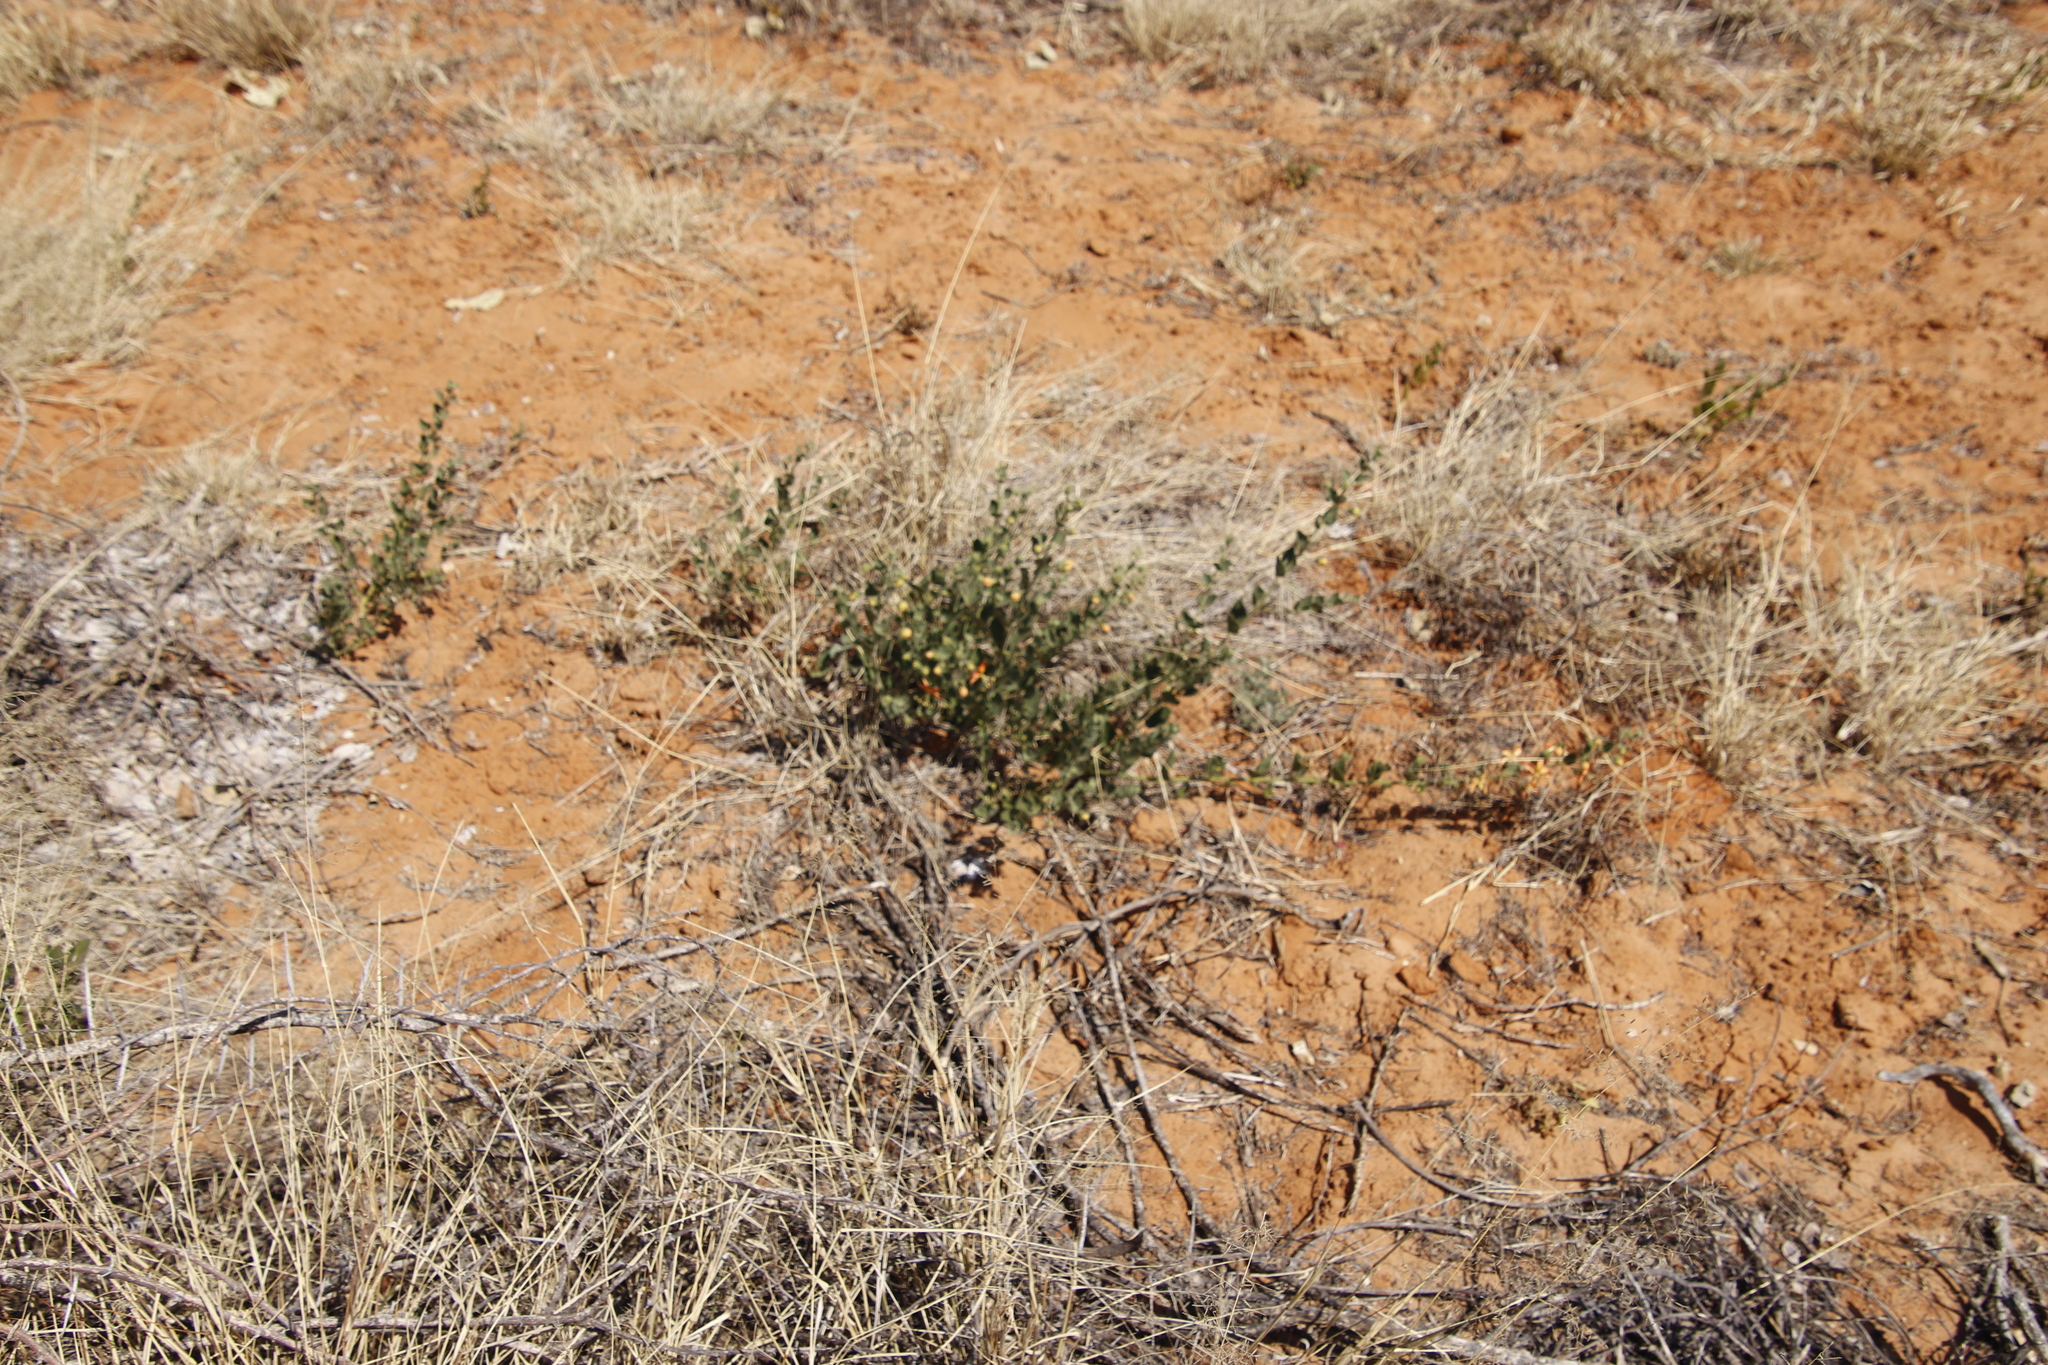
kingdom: Plantae
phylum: Tracheophyta
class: Magnoliopsida
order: Lamiales
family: Lamiaceae
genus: Kalaharia
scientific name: Kalaharia uncinata
